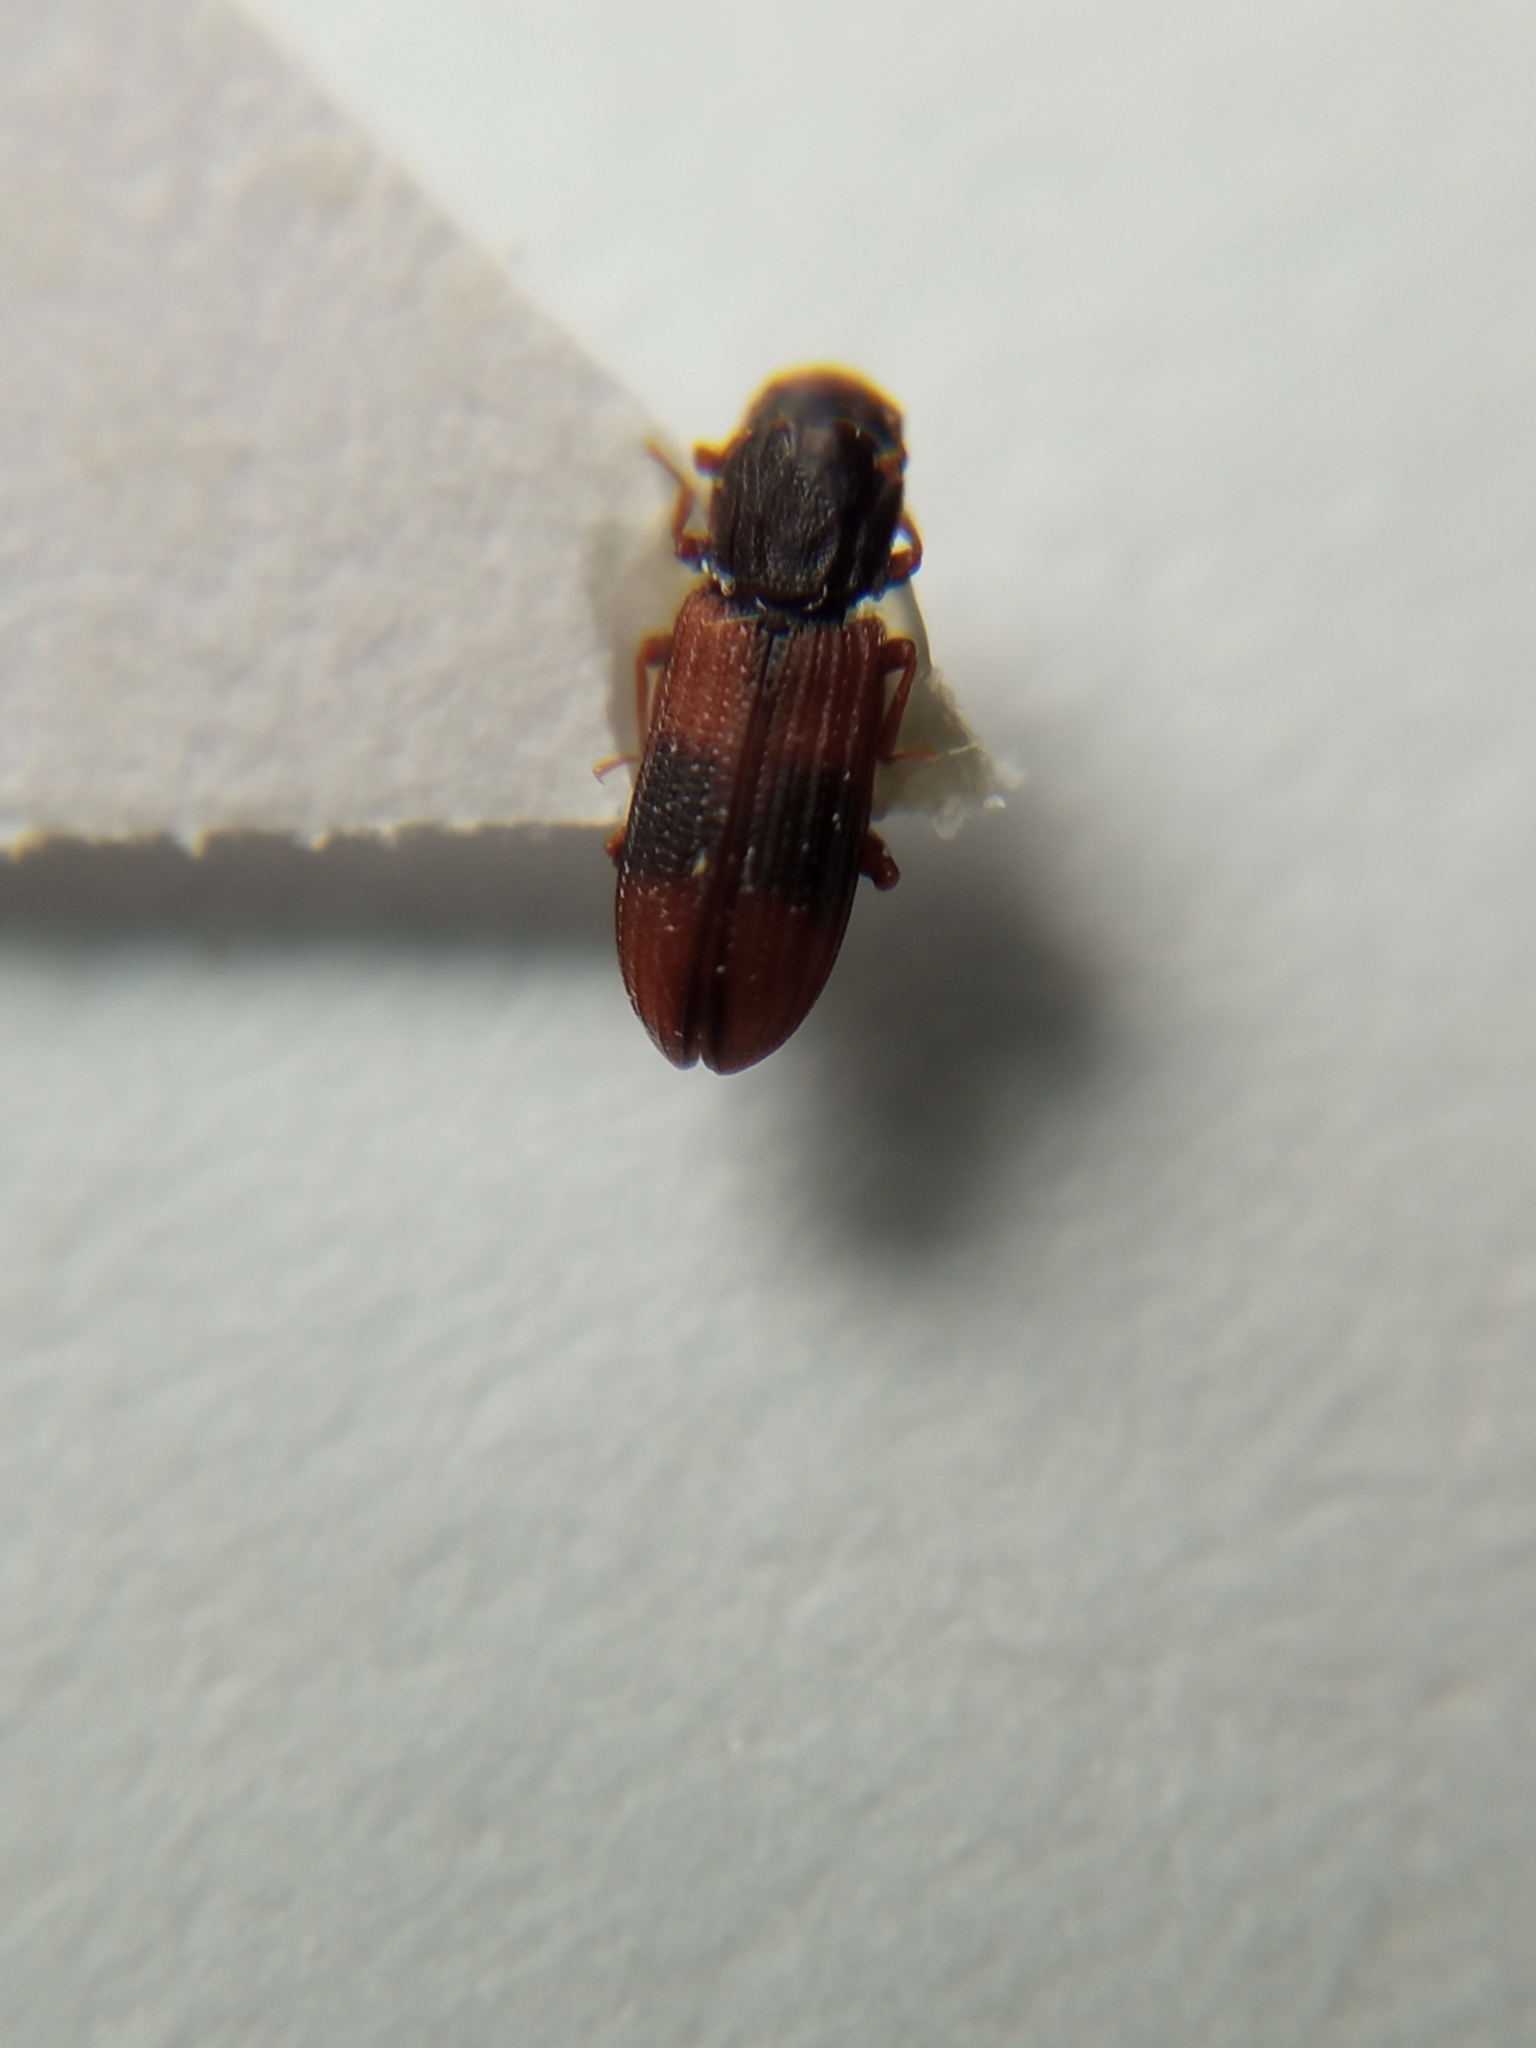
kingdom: Animalia
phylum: Arthropoda
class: Insecta
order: Coleoptera
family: Zopheridae
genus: Bitoma
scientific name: Bitoma crenata
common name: Bark beetle
